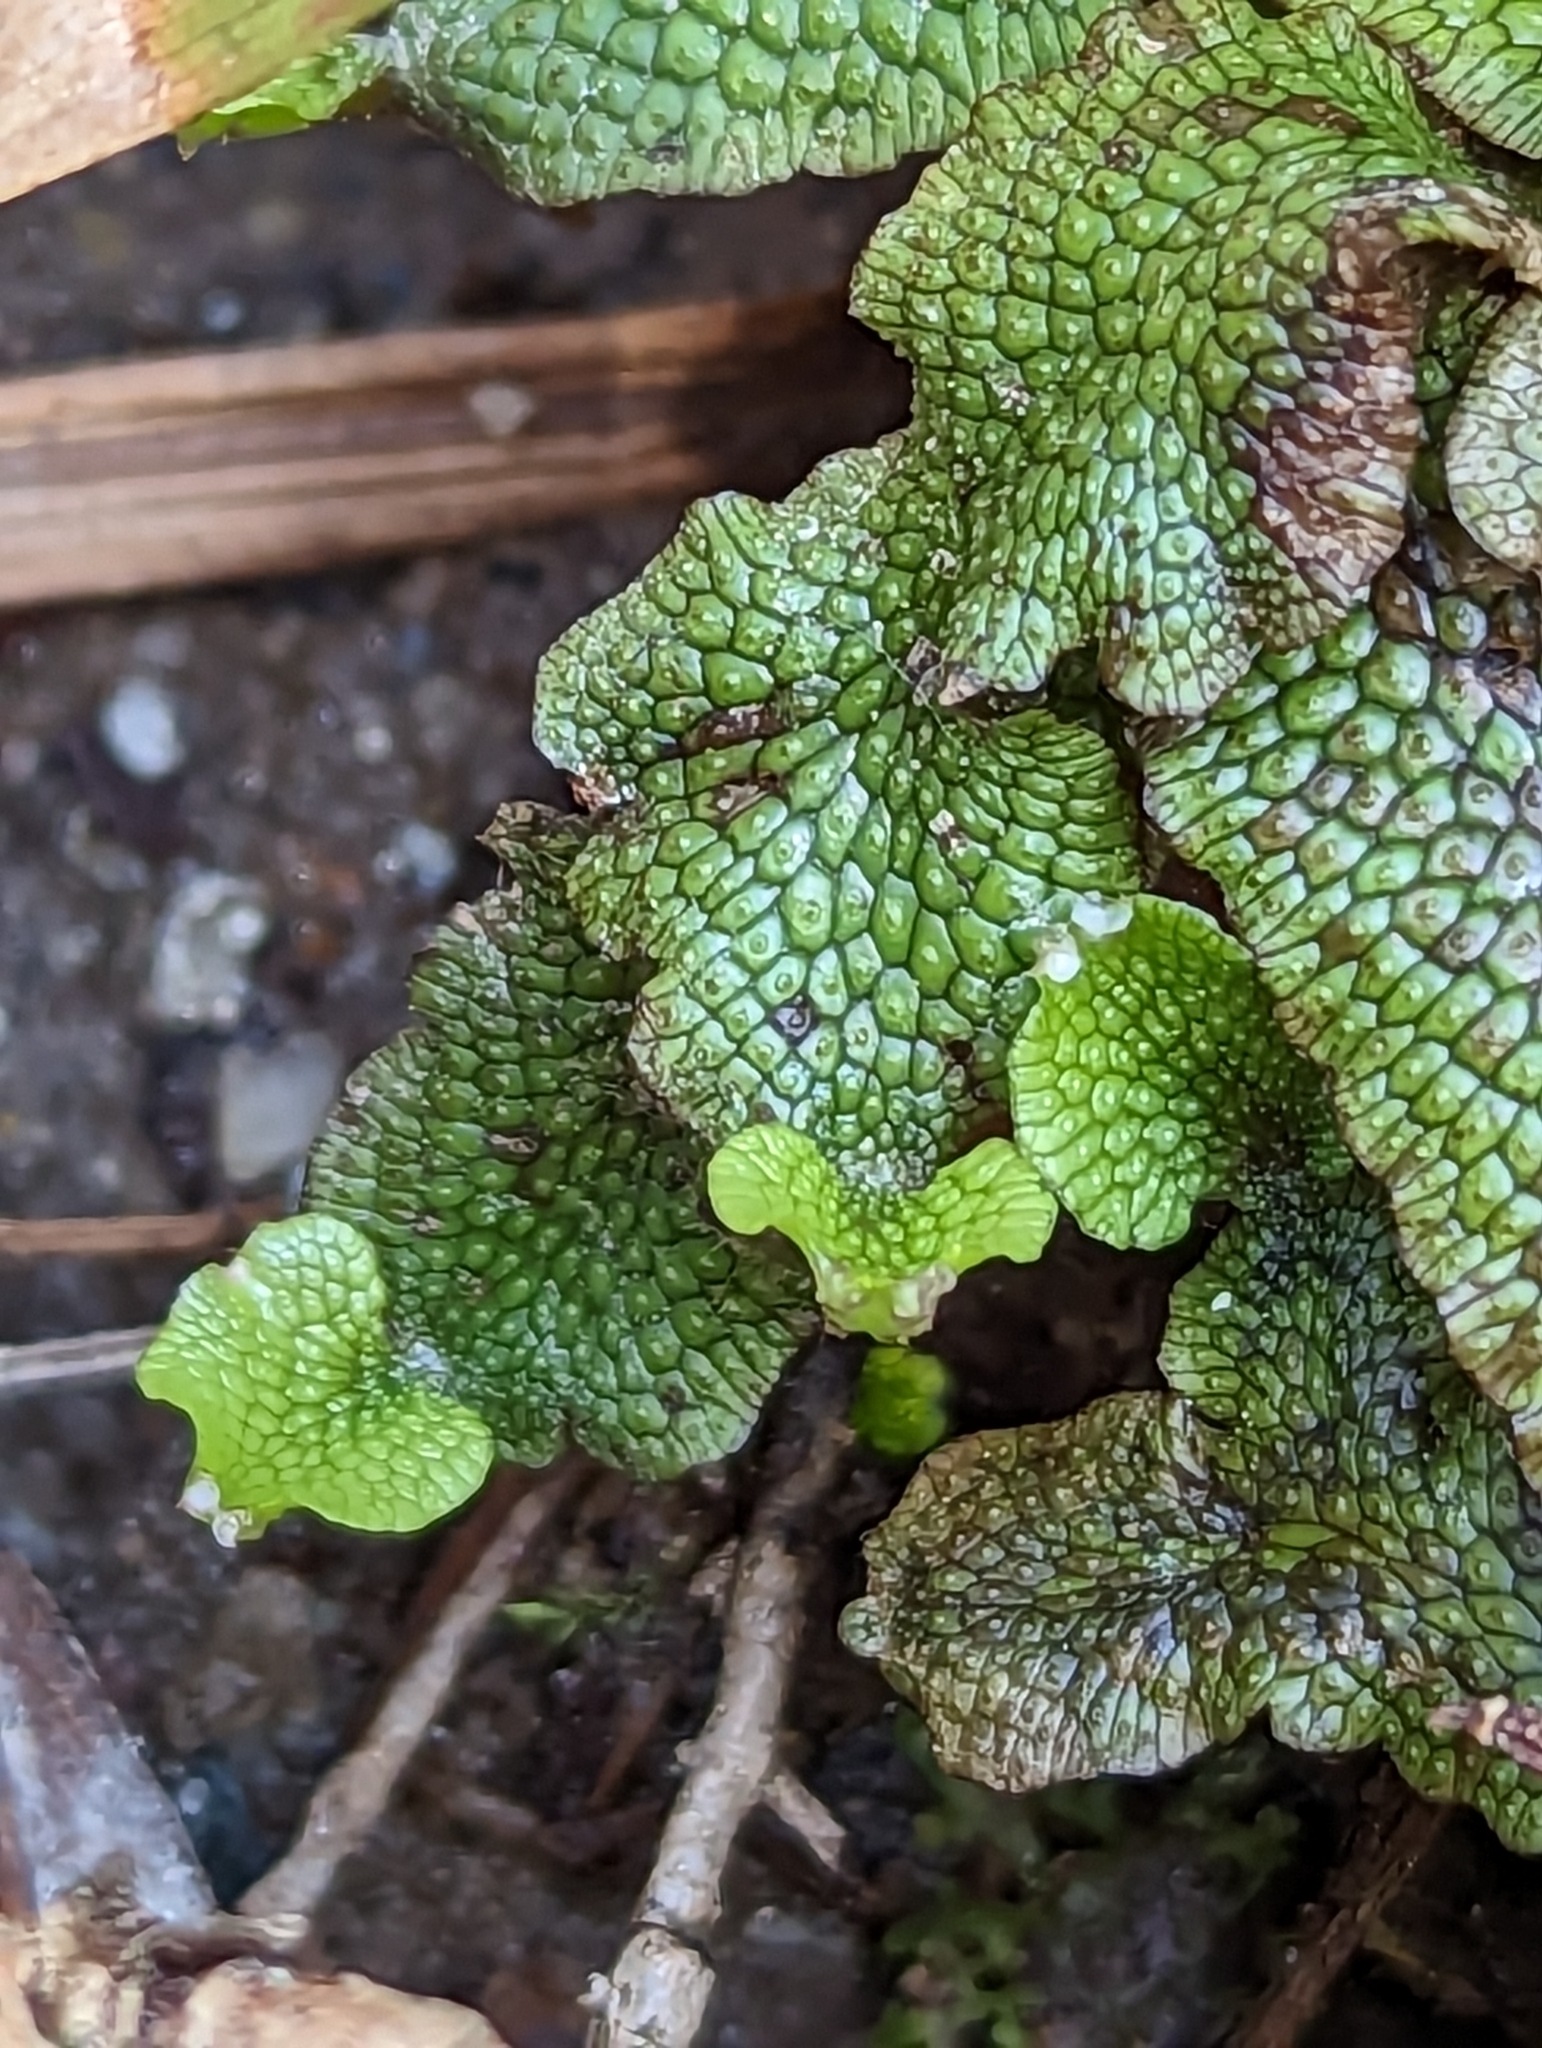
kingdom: Plantae
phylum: Marchantiophyta
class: Marchantiopsida
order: Marchantiales
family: Conocephalaceae
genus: Conocephalum
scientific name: Conocephalum salebrosum
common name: Cat-tongue liverwort
